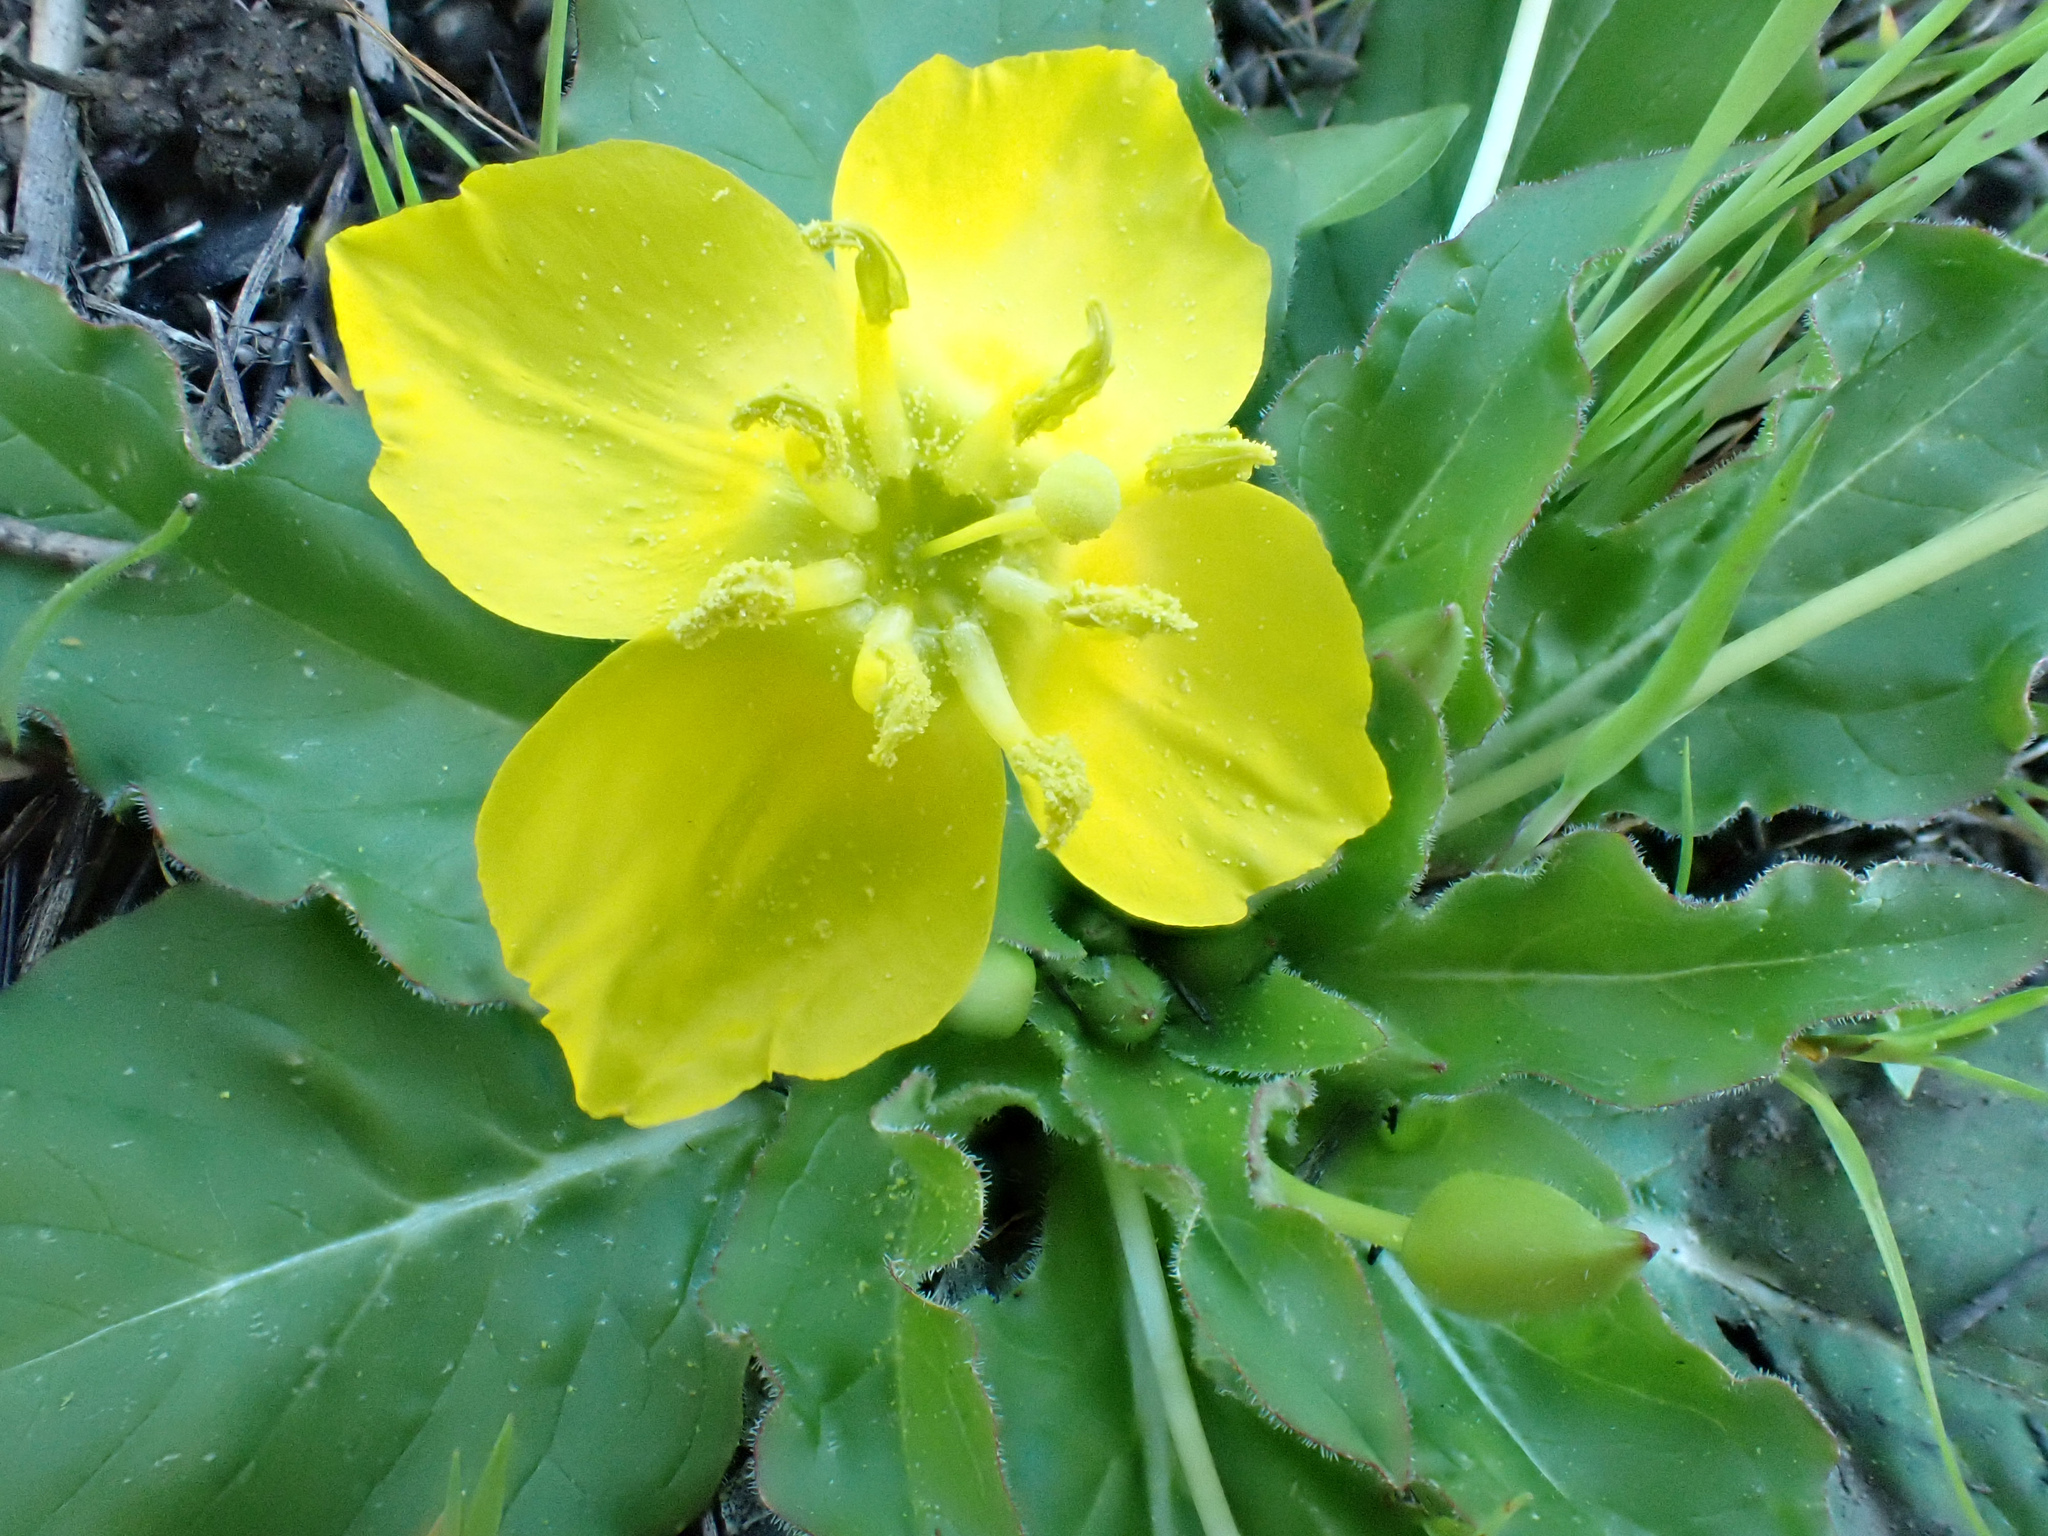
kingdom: Plantae
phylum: Tracheophyta
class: Magnoliopsida
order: Myrtales
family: Onagraceae
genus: Taraxia
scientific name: Taraxia ovata
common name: Goldeneggs
